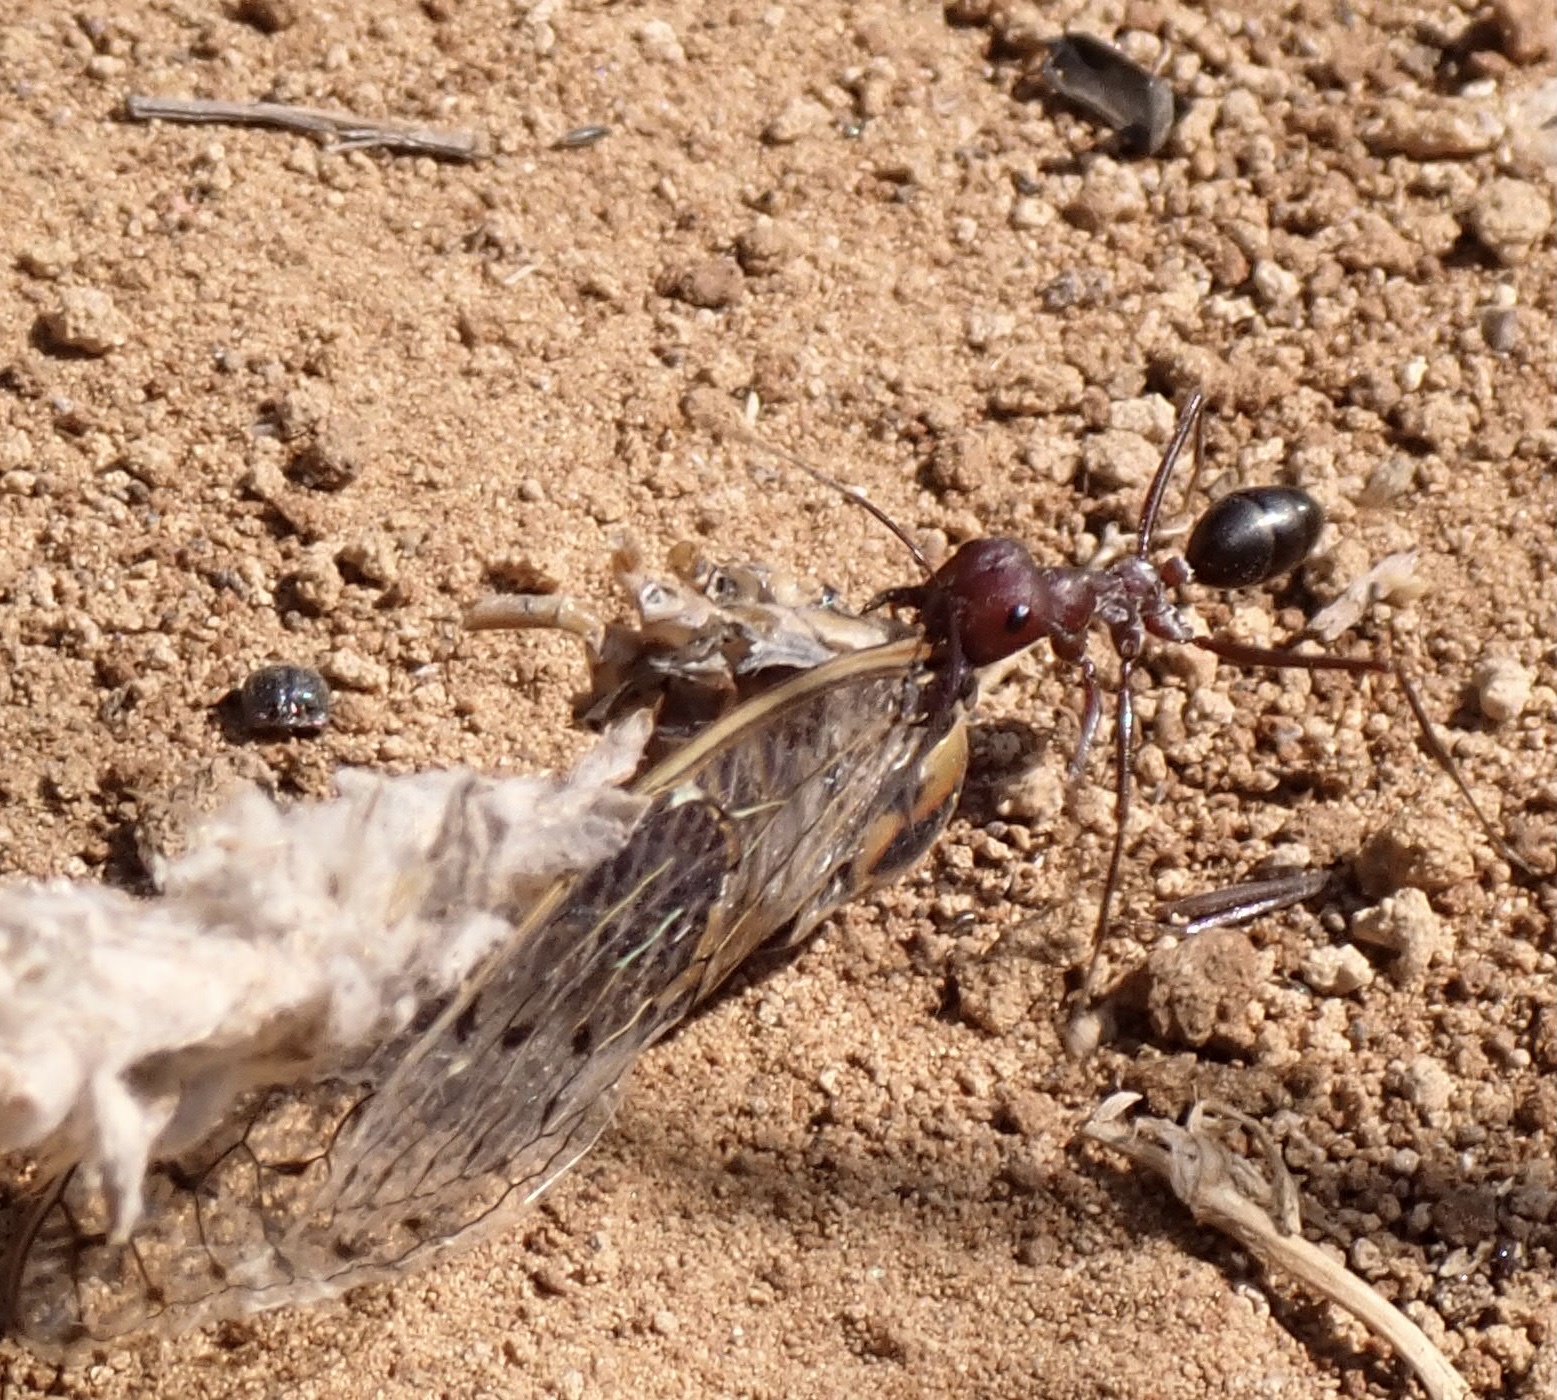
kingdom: Animalia
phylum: Arthropoda
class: Insecta
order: Hymenoptera
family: Formicidae
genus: Cataglyphis
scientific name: Cataglyphis nodus
